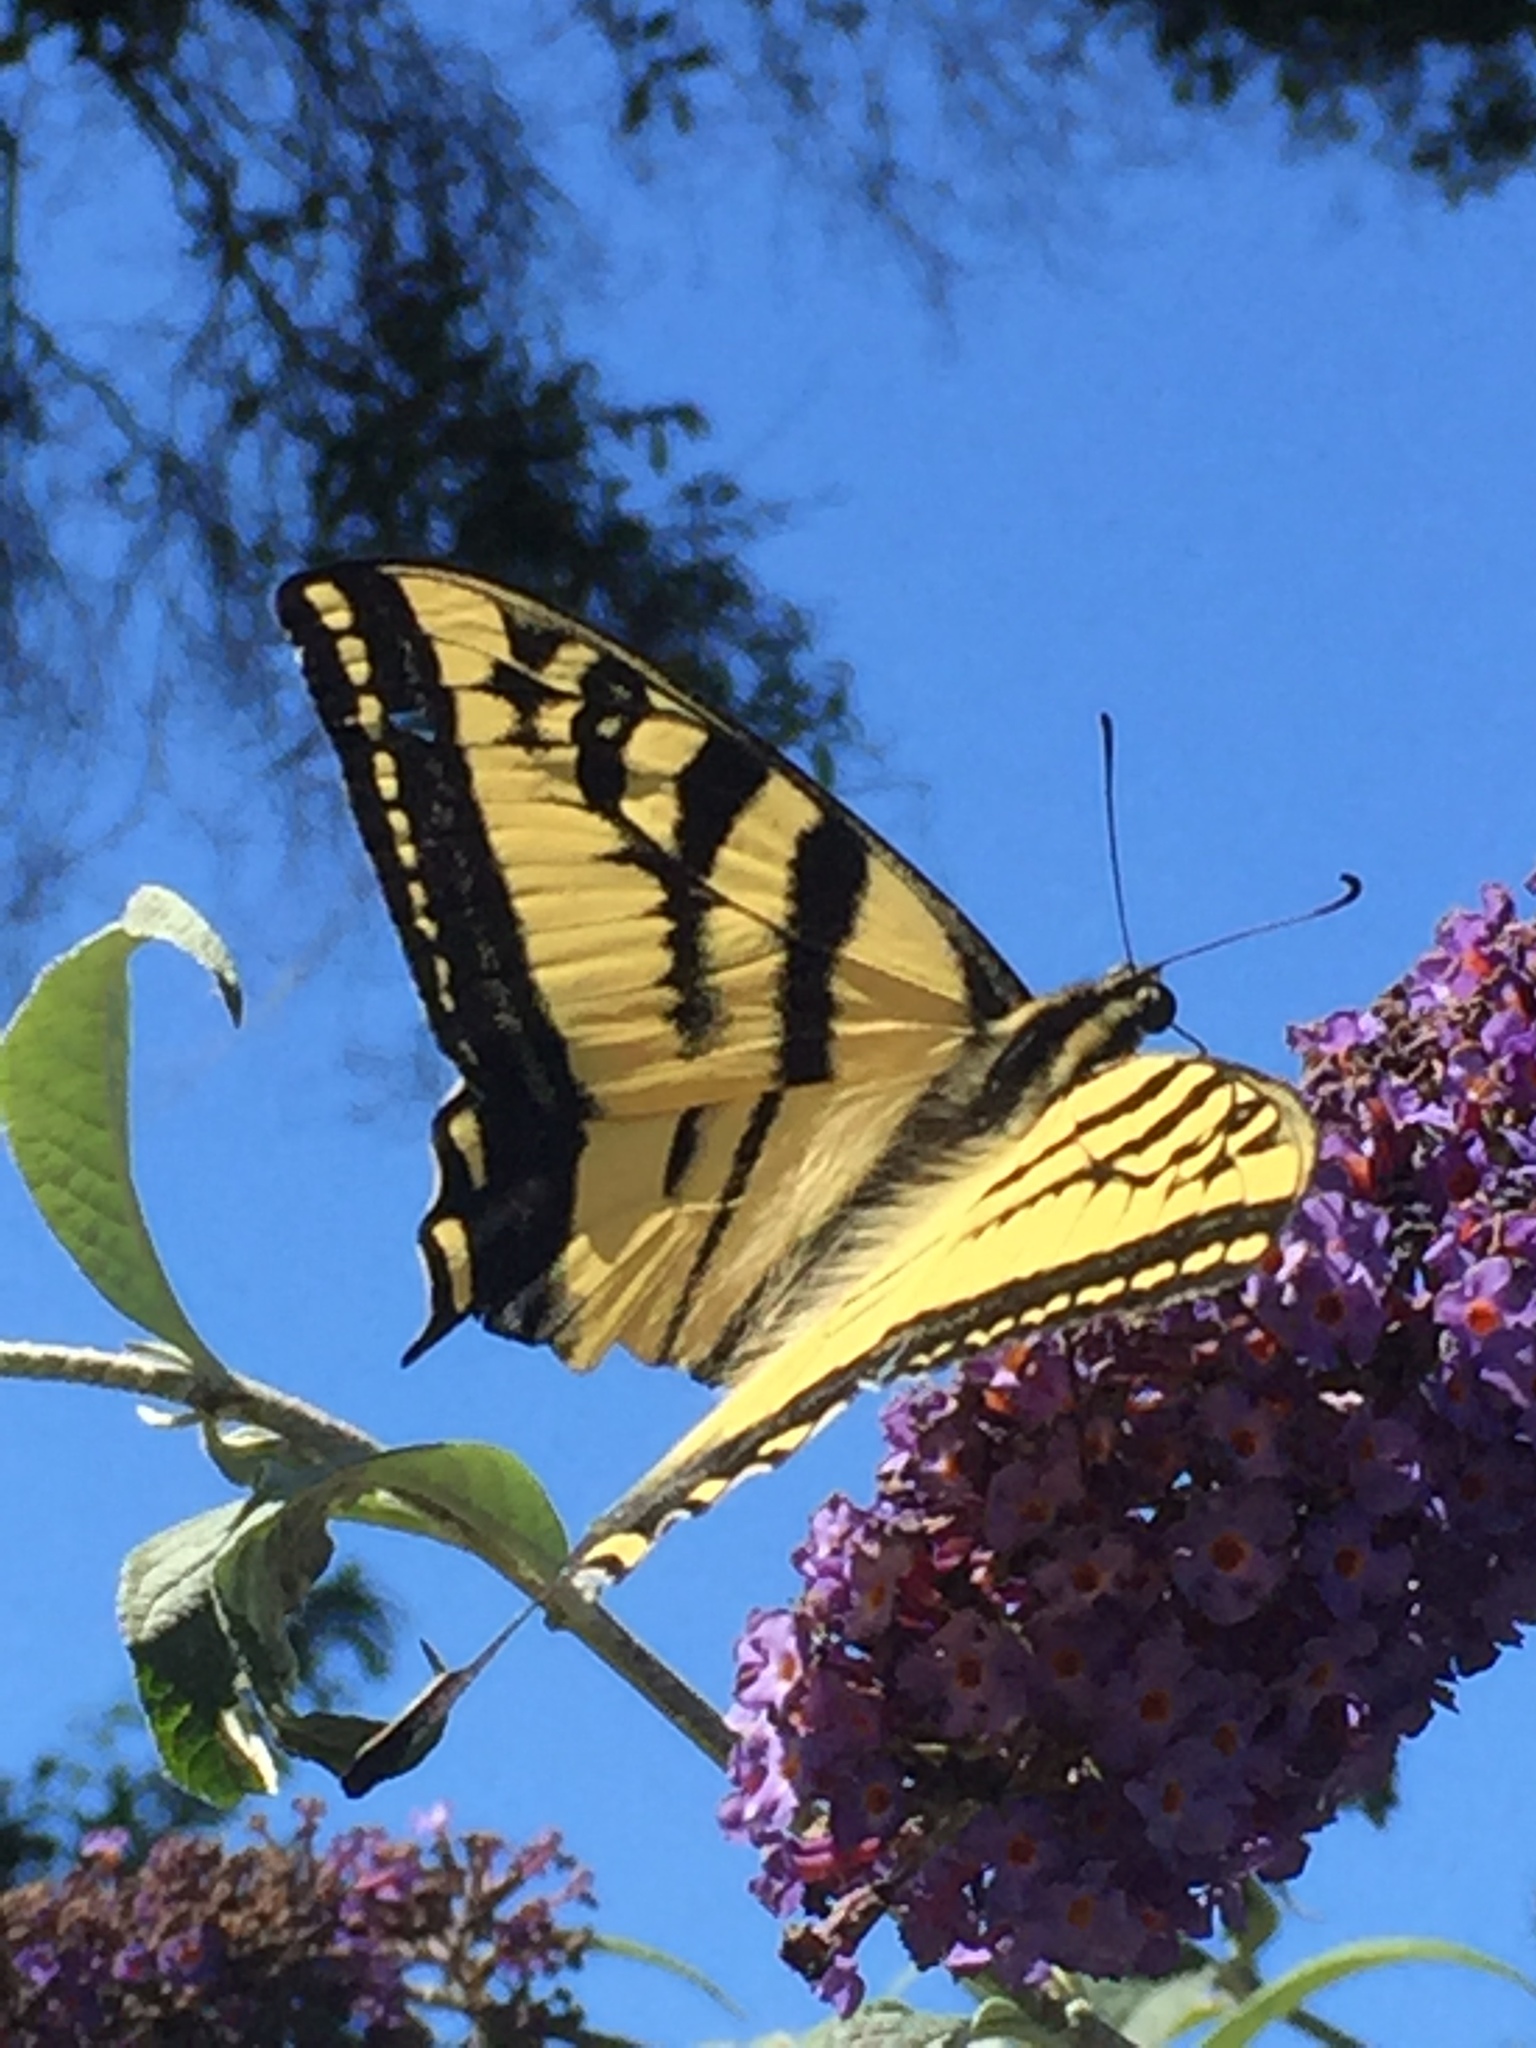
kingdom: Animalia
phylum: Arthropoda
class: Insecta
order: Lepidoptera
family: Papilionidae
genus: Papilio
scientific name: Papilio rutulus
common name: Western tiger swallowtail
